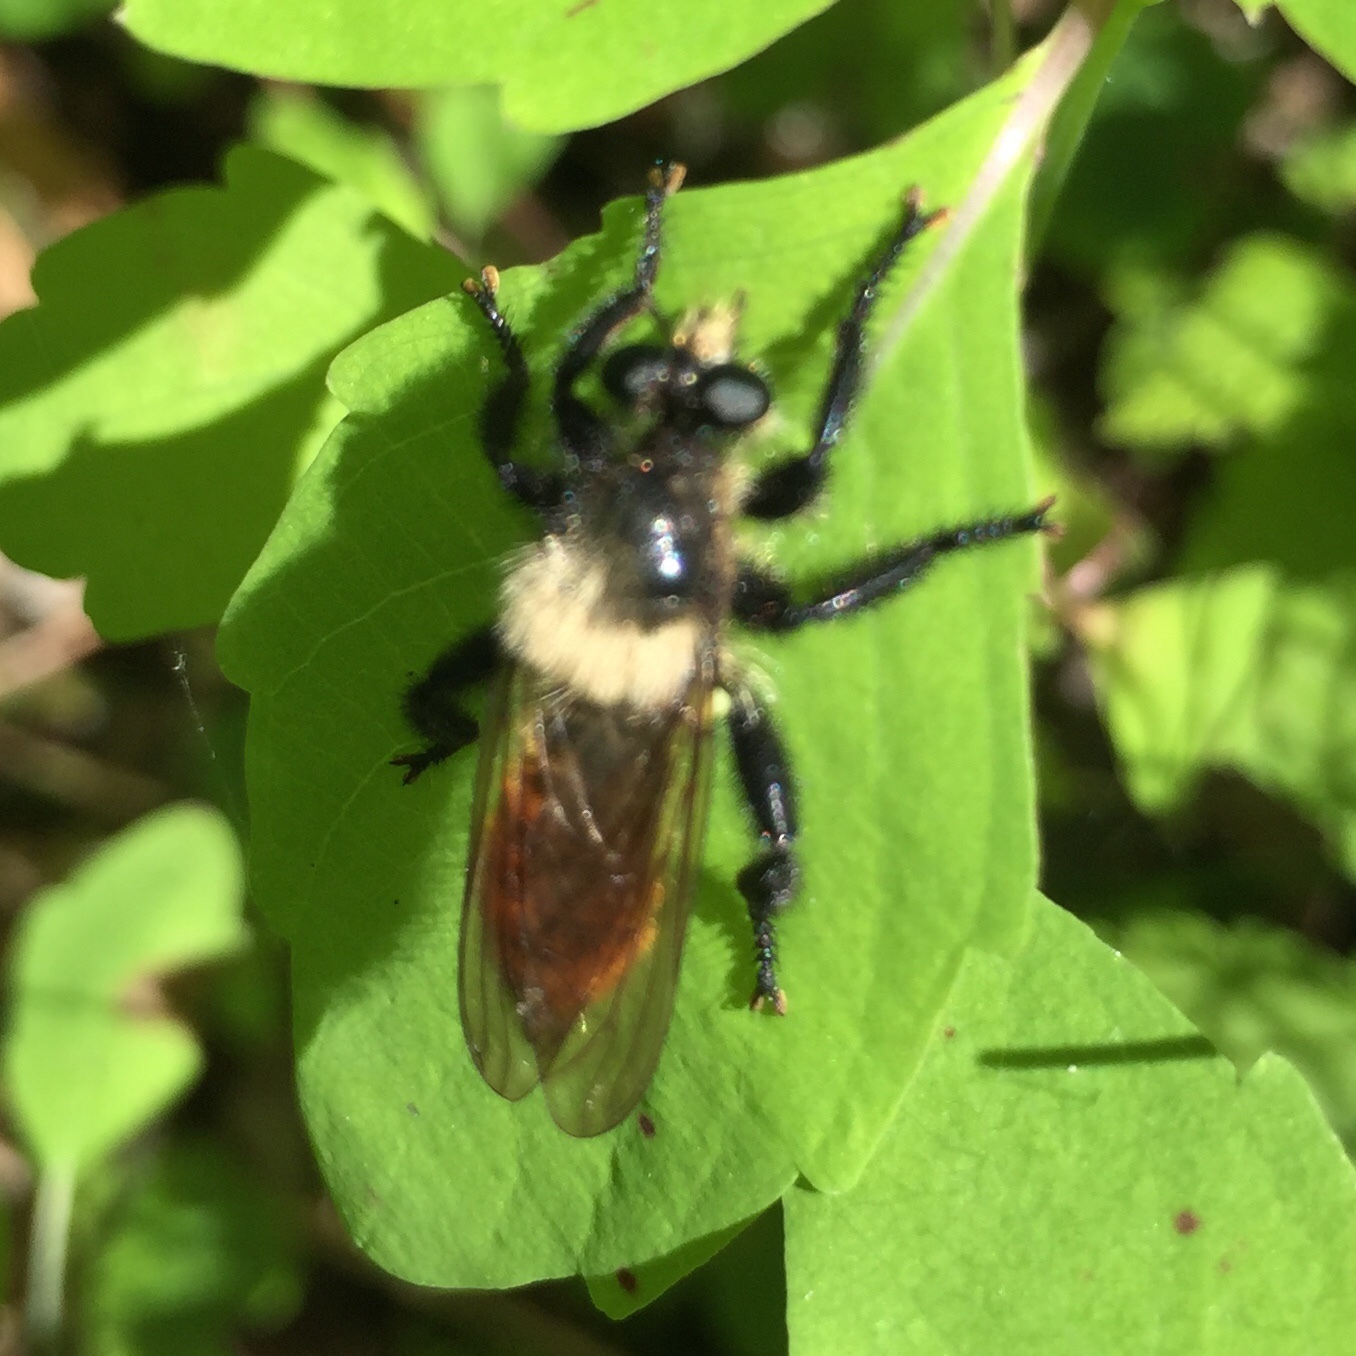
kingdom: Animalia
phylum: Arthropoda
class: Insecta
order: Diptera
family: Asilidae
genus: Laphria
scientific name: Laphria janus
